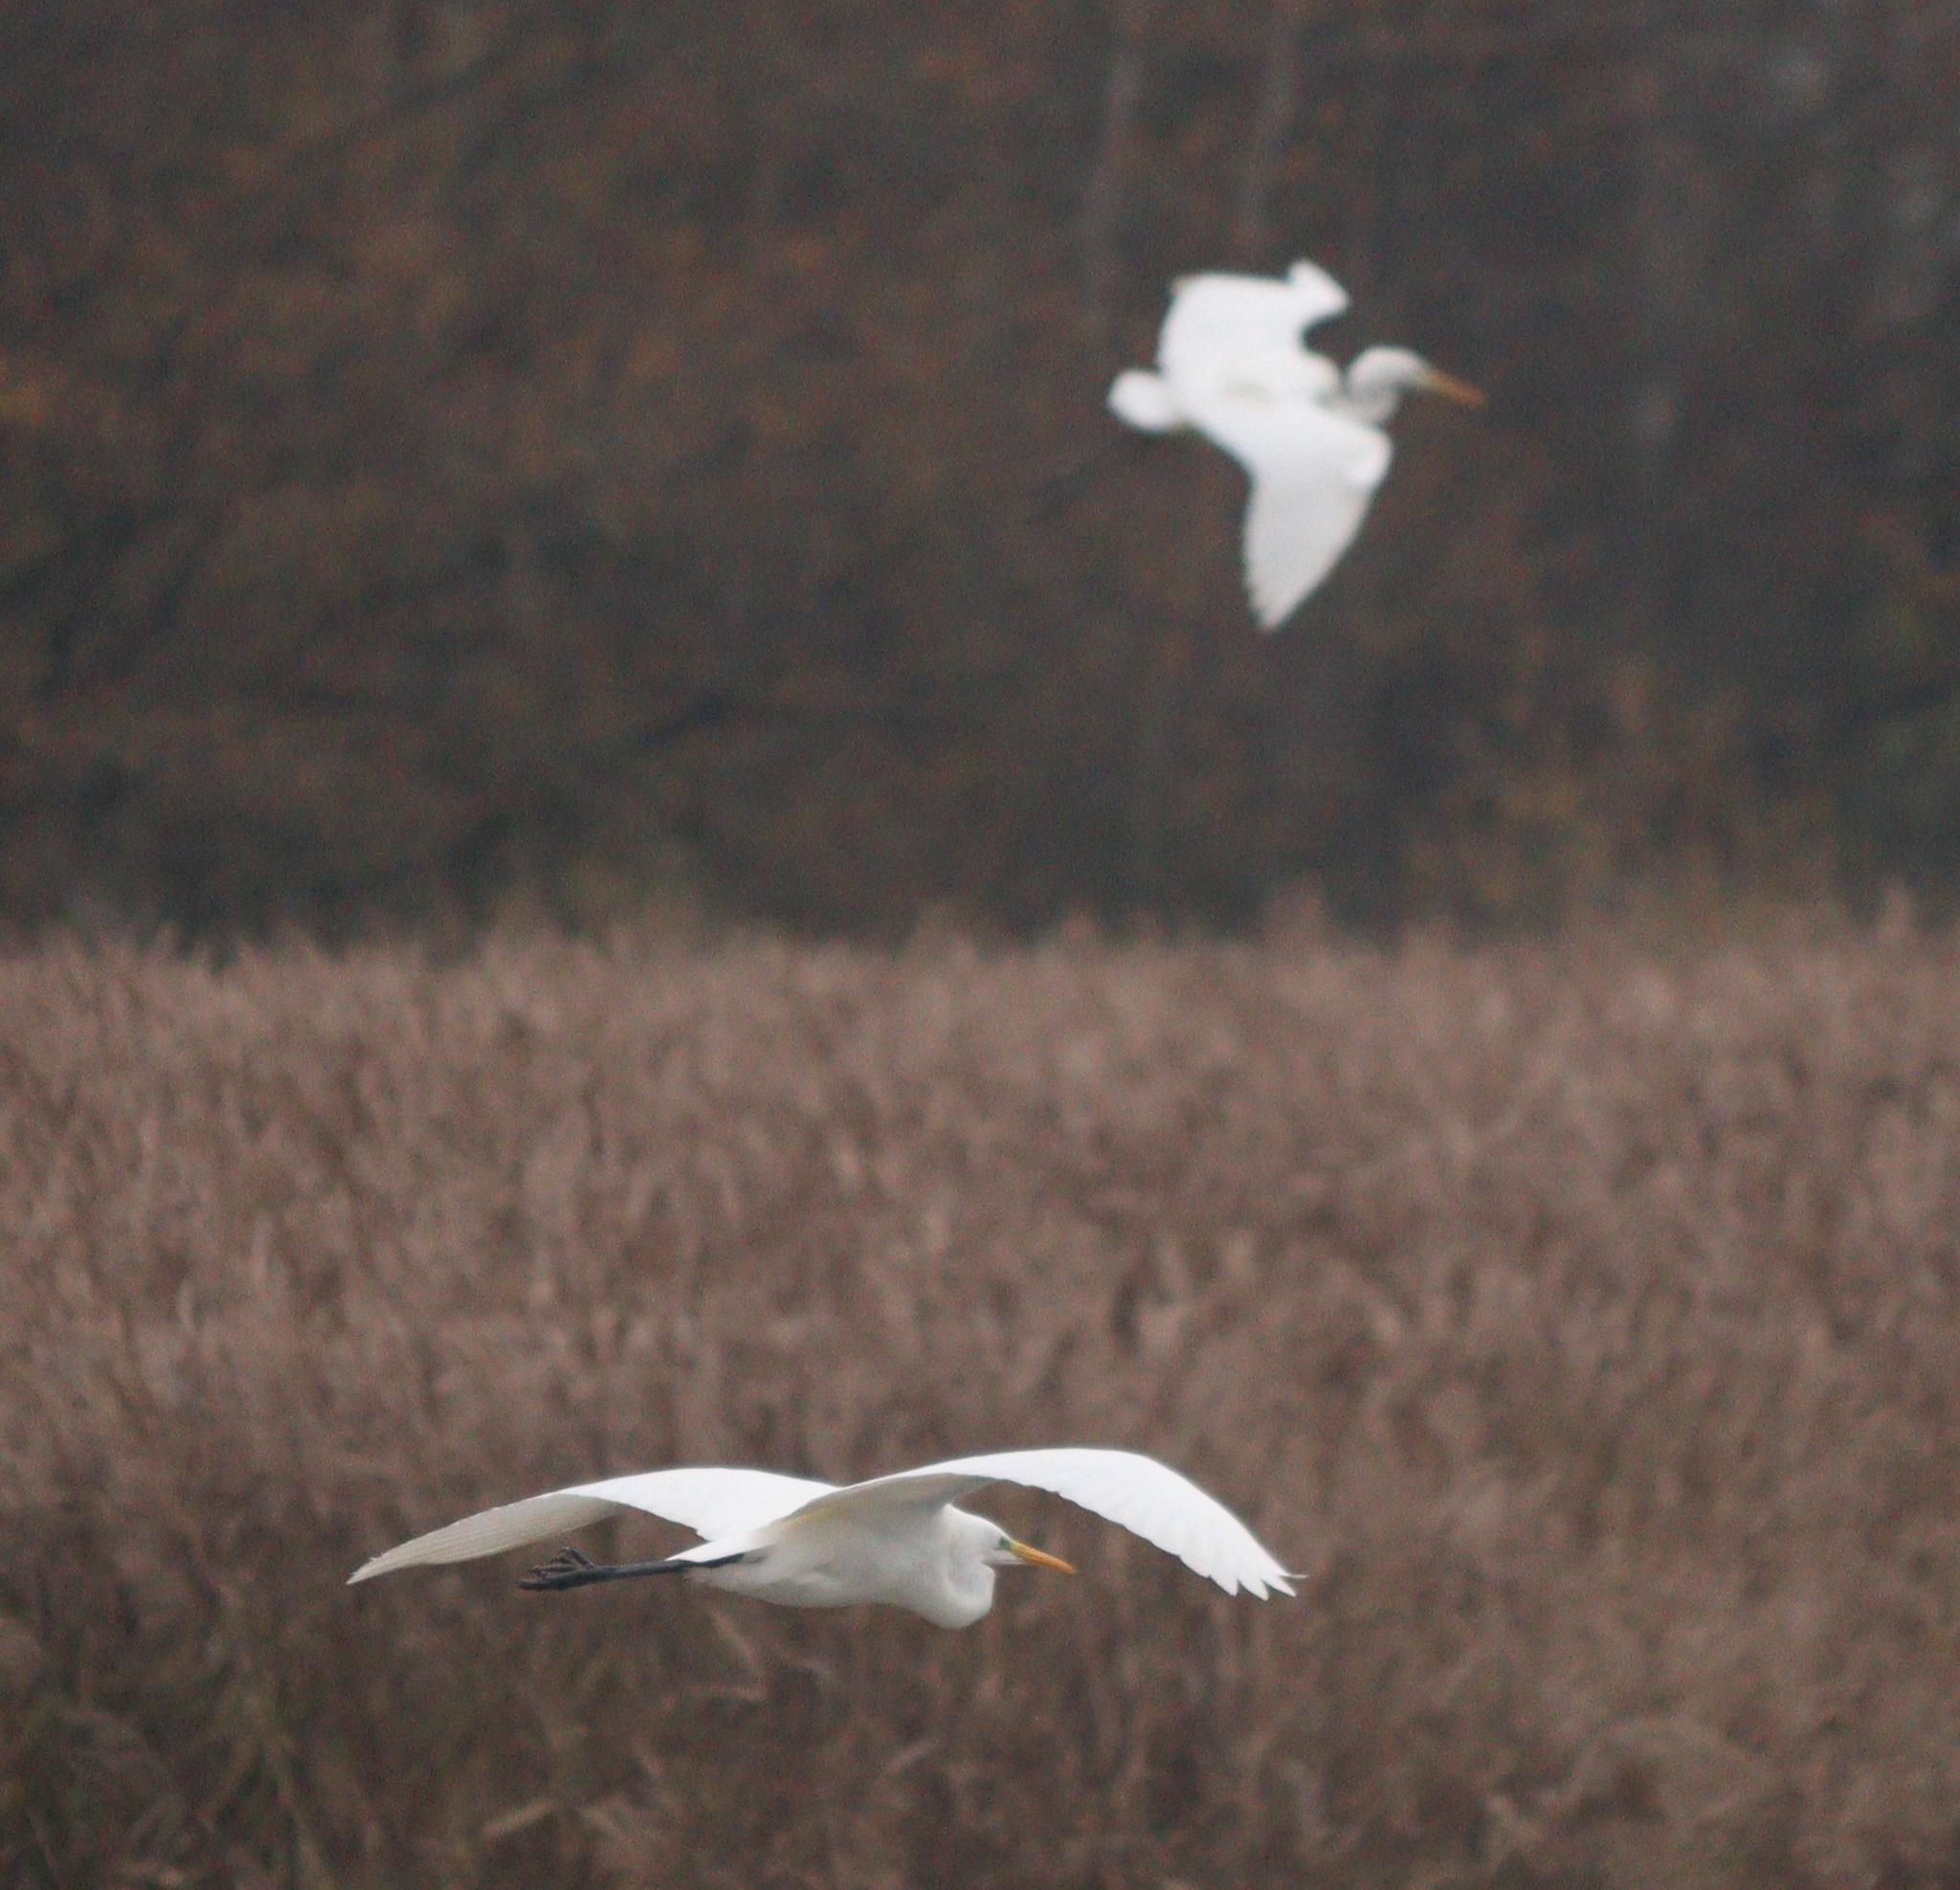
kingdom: Animalia
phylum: Chordata
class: Aves
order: Pelecaniformes
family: Ardeidae
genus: Ardea
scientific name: Ardea alba
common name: Great egret
